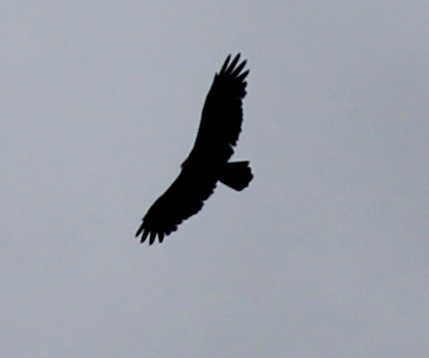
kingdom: Animalia
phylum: Chordata
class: Aves
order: Accipitriformes
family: Cathartidae
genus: Cathartes
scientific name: Cathartes aura
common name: Turkey vulture
